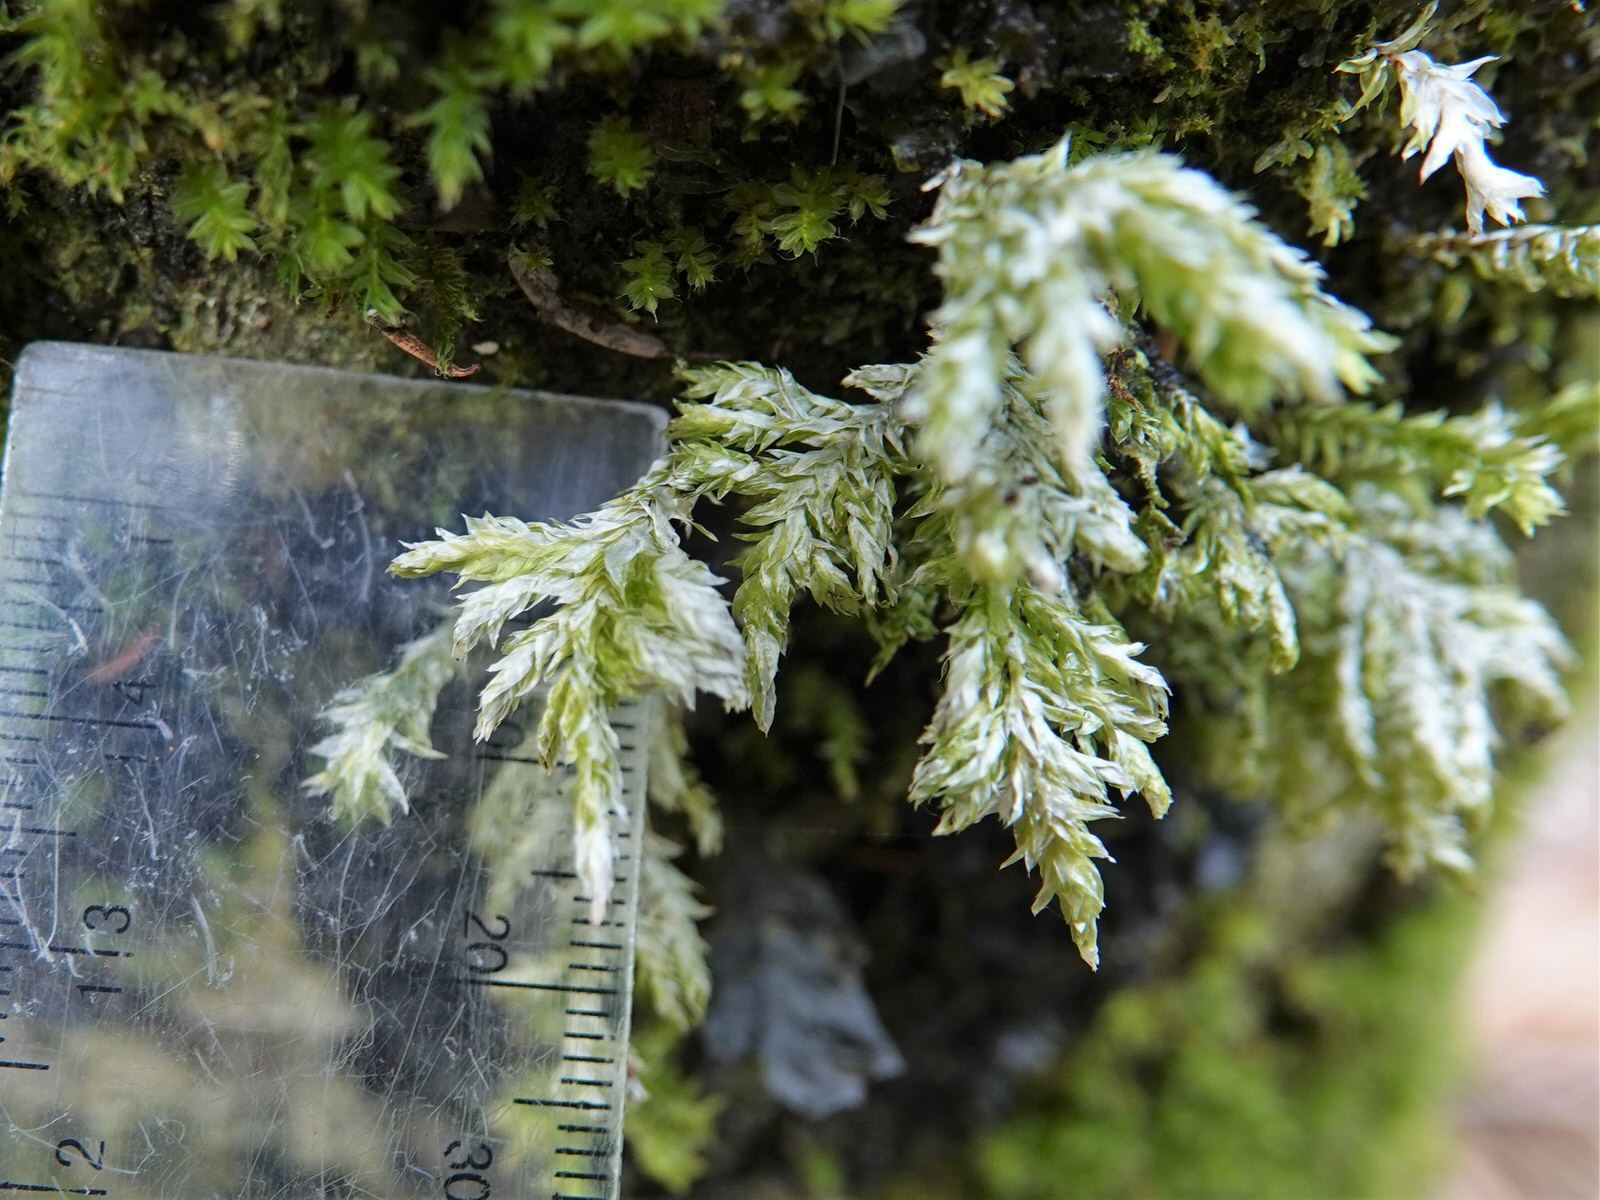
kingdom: Plantae
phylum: Bryophyta
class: Bryopsida
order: Hypnales
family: Trachylomataceae
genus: Trachyloma
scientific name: Trachyloma planifolium
